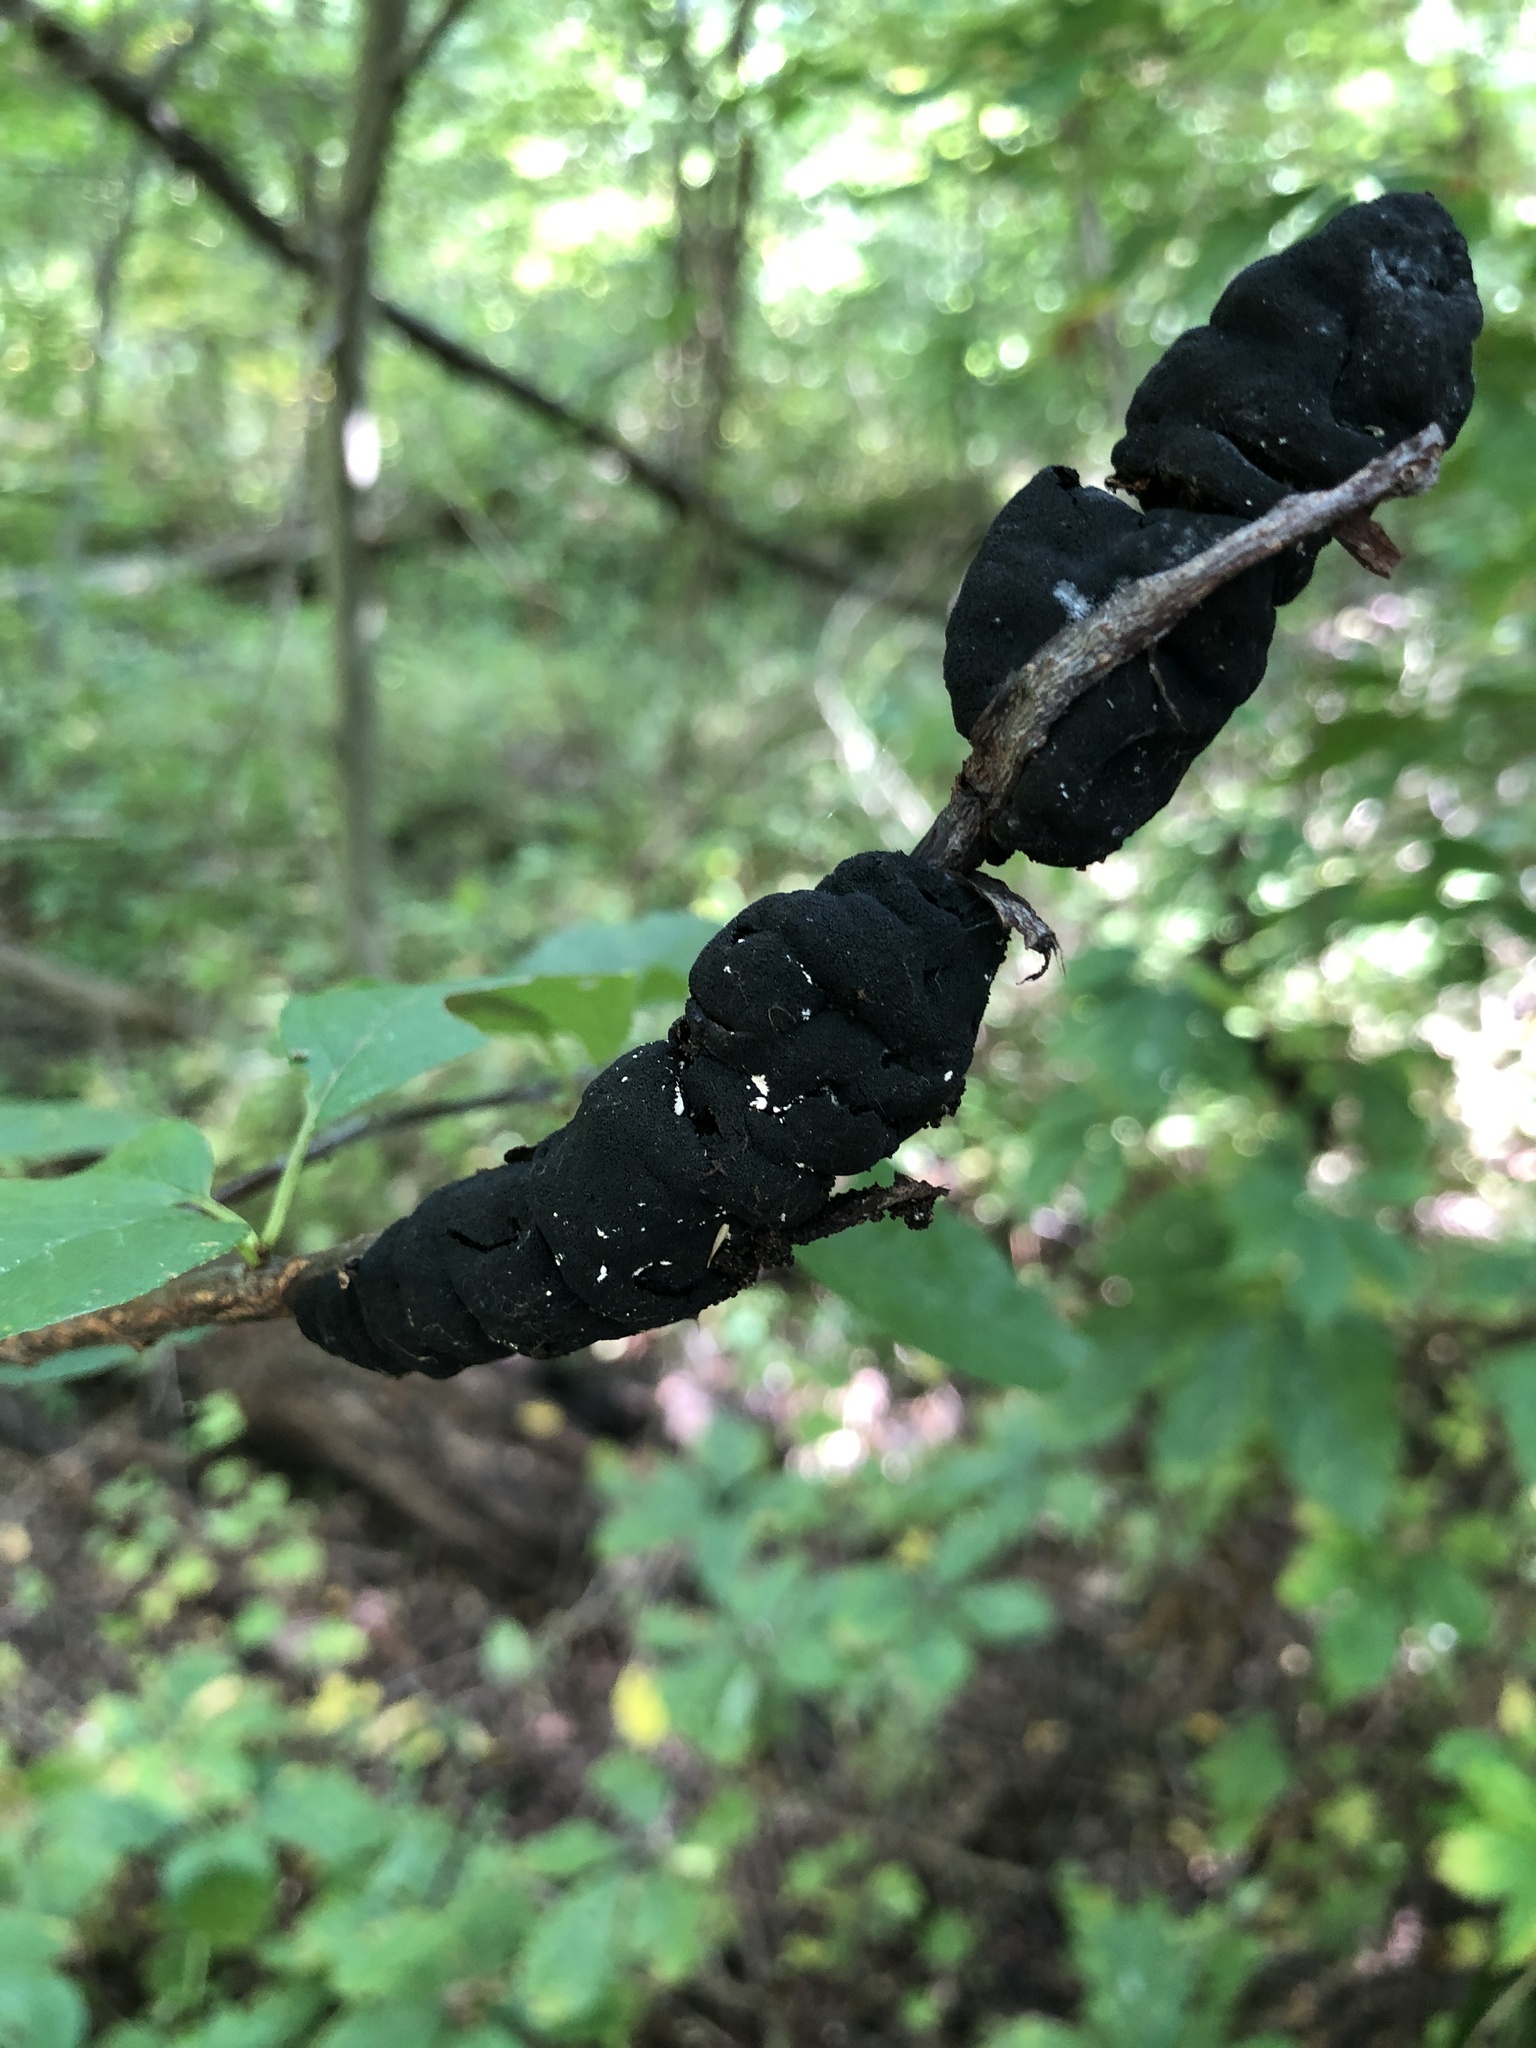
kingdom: Fungi
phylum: Ascomycota
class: Dothideomycetes
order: Venturiales
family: Venturiaceae
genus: Apiosporina
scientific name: Apiosporina morbosa
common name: Black knot
